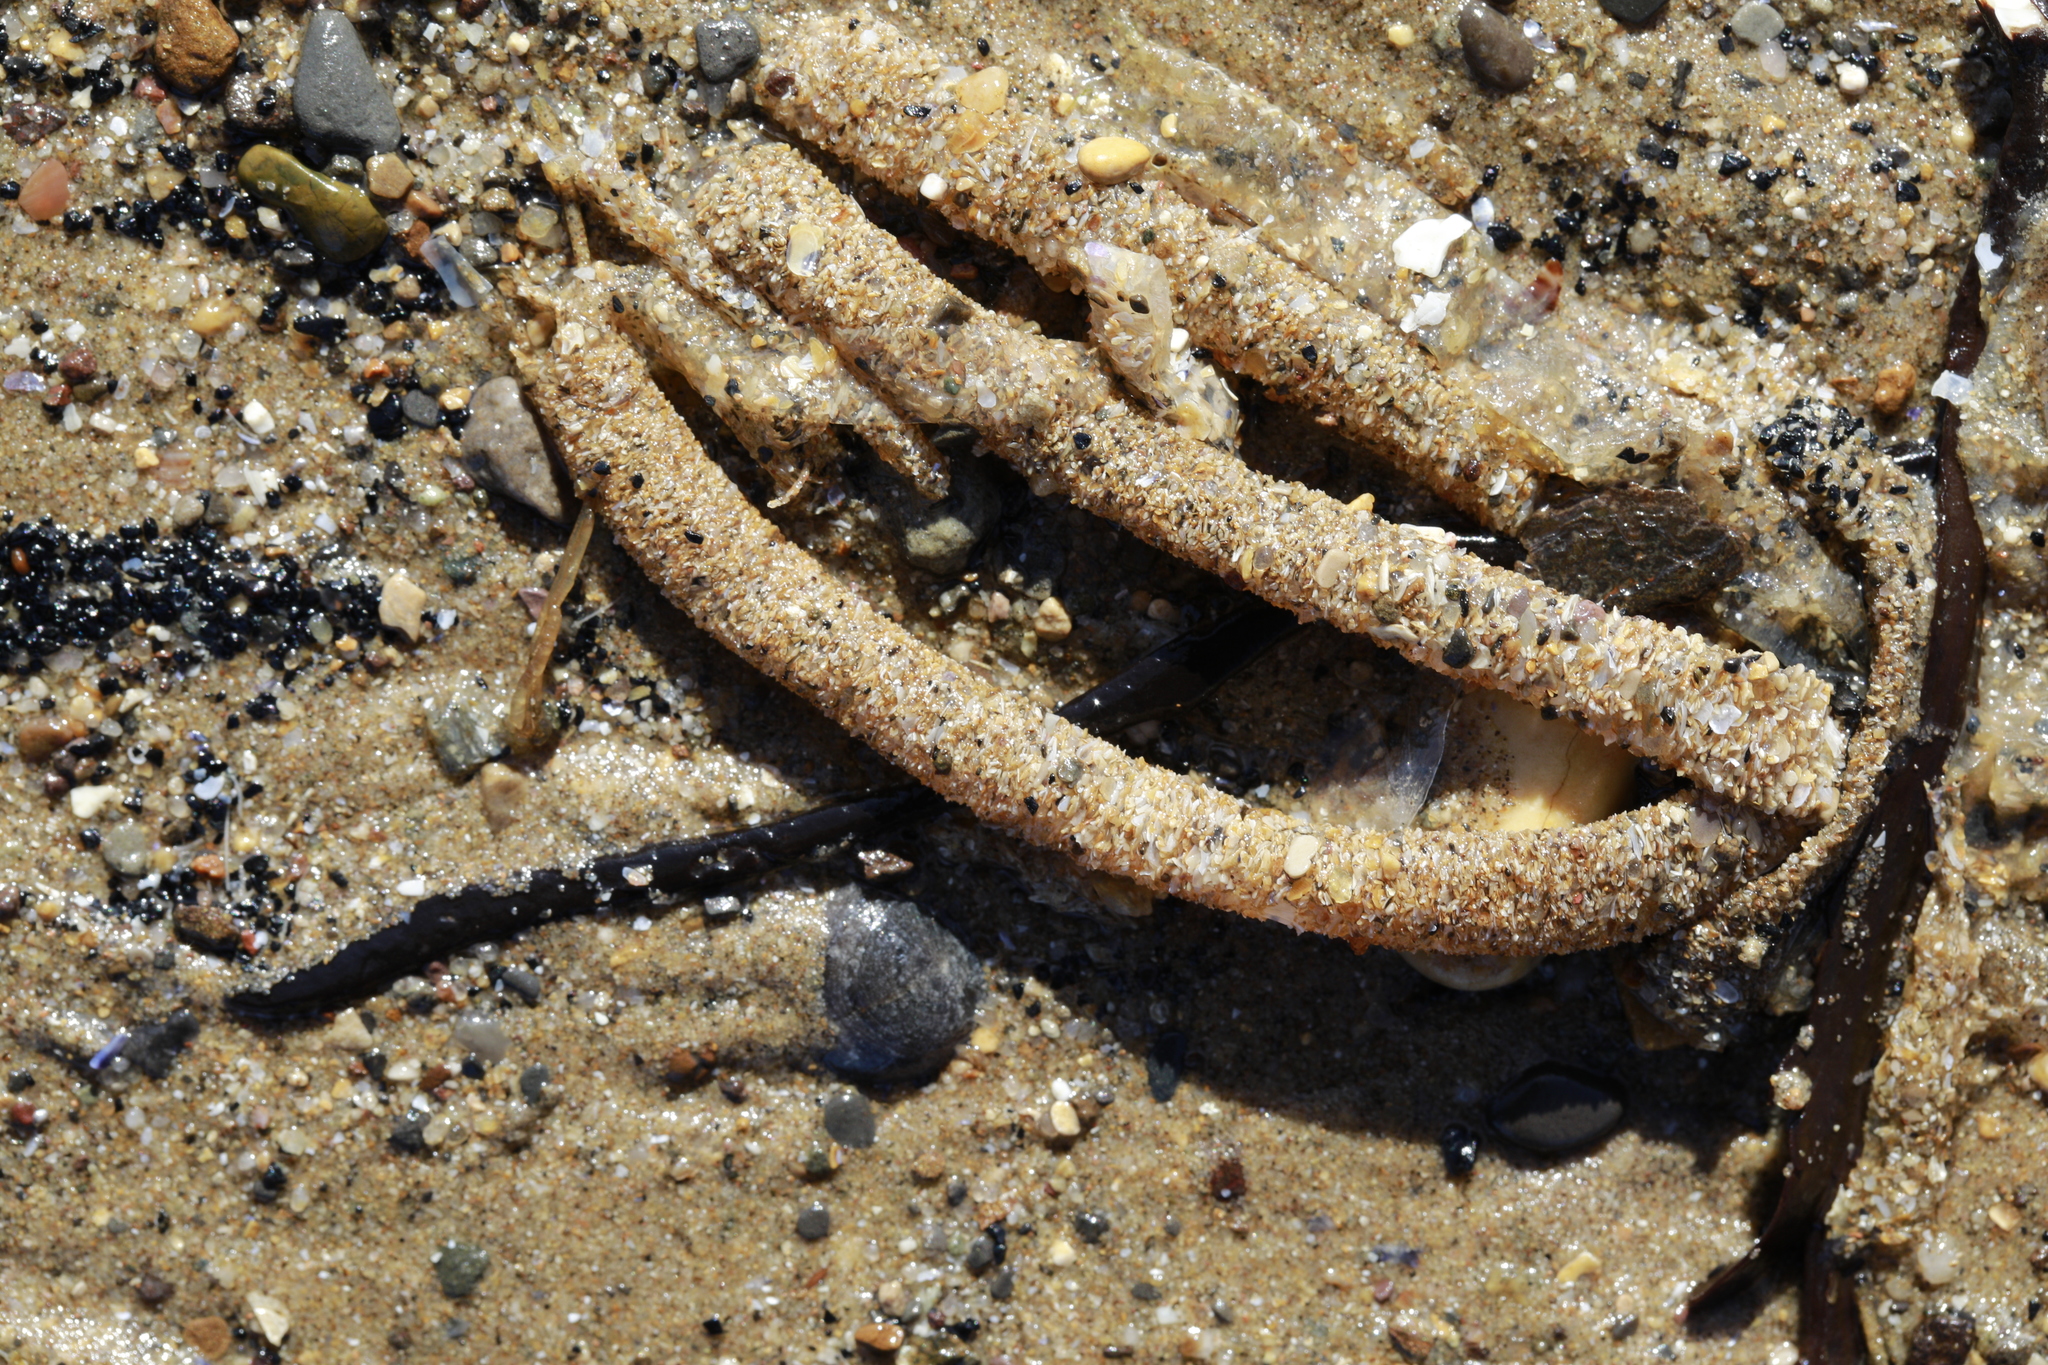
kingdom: Animalia
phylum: Annelida
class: Polychaeta
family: Terebellidae
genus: Lanice
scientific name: Lanice conchilega
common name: Sand mason
